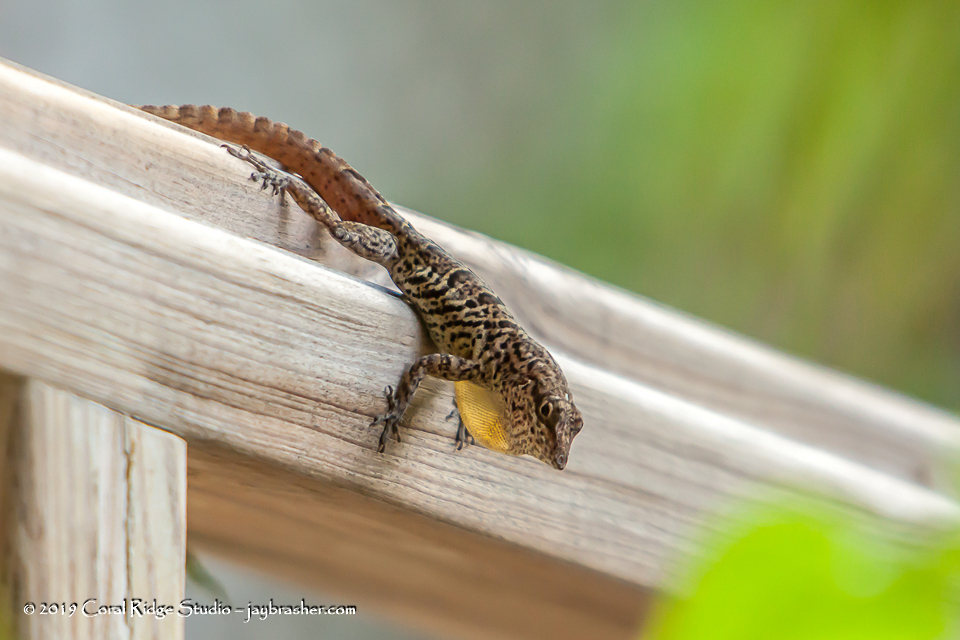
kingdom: Animalia
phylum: Chordata
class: Squamata
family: Dactyloidae
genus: Anolis
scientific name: Anolis bonairensis
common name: Ruthven's anole
